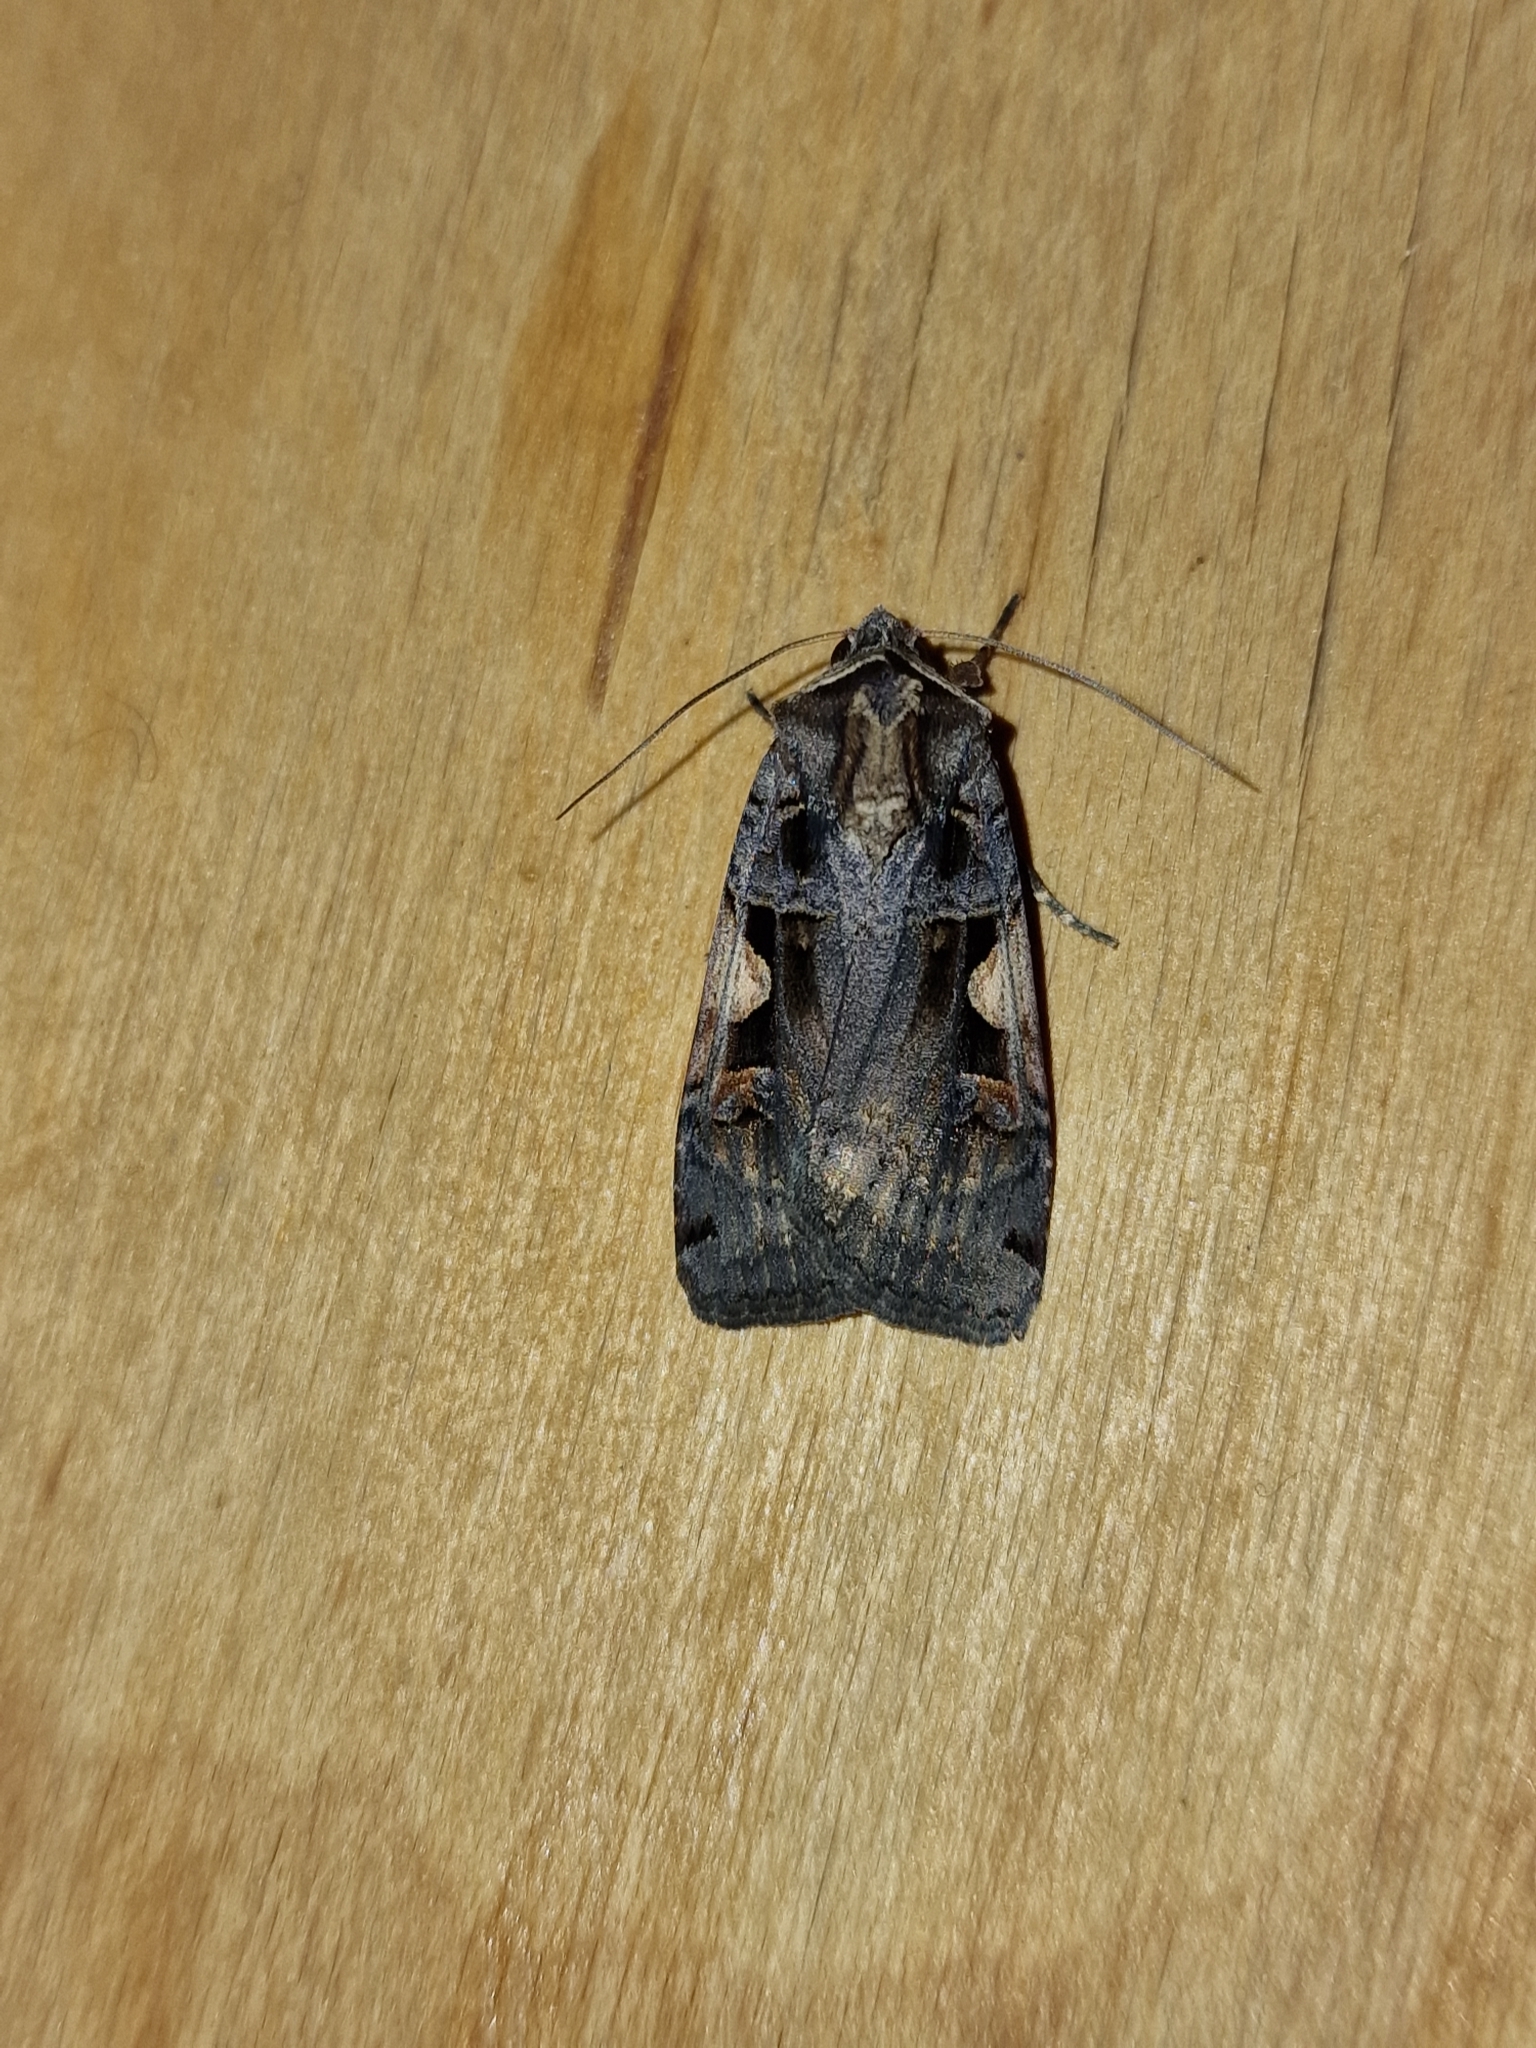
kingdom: Animalia
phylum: Arthropoda
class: Insecta
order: Lepidoptera
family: Noctuidae
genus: Xestia
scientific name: Xestia c-nigrum
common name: Setaceous hebrew character
